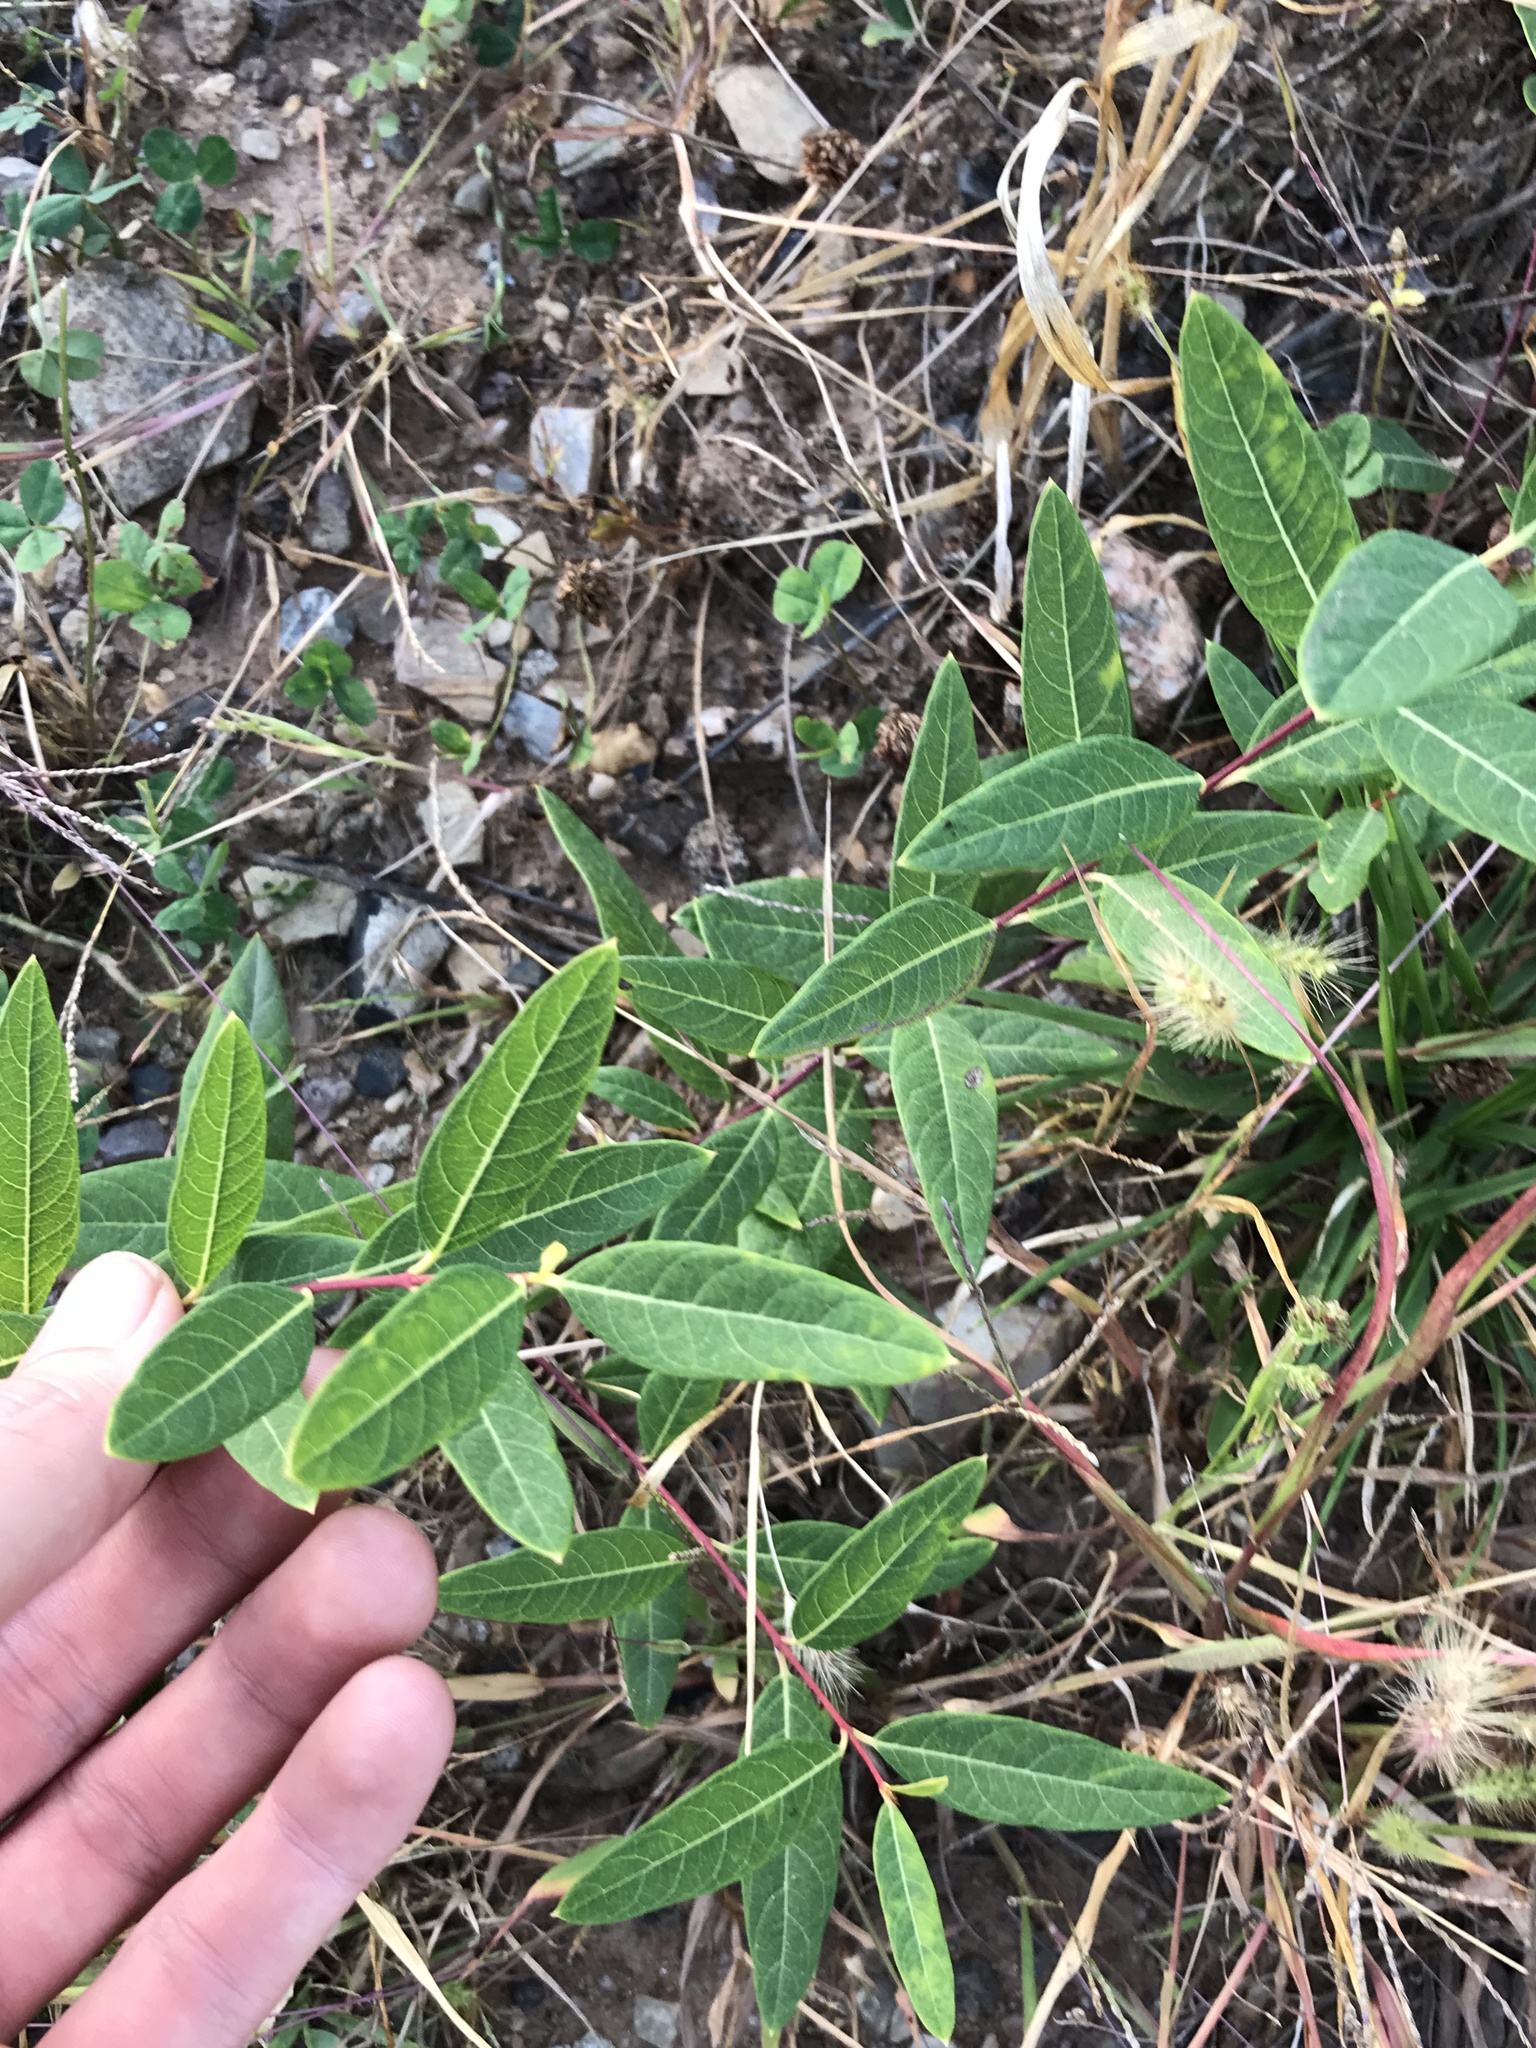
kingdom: Plantae
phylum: Tracheophyta
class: Magnoliopsida
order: Gentianales
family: Apocynaceae
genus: Apocynum
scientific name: Apocynum cannabinum
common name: Hemp dogbane
